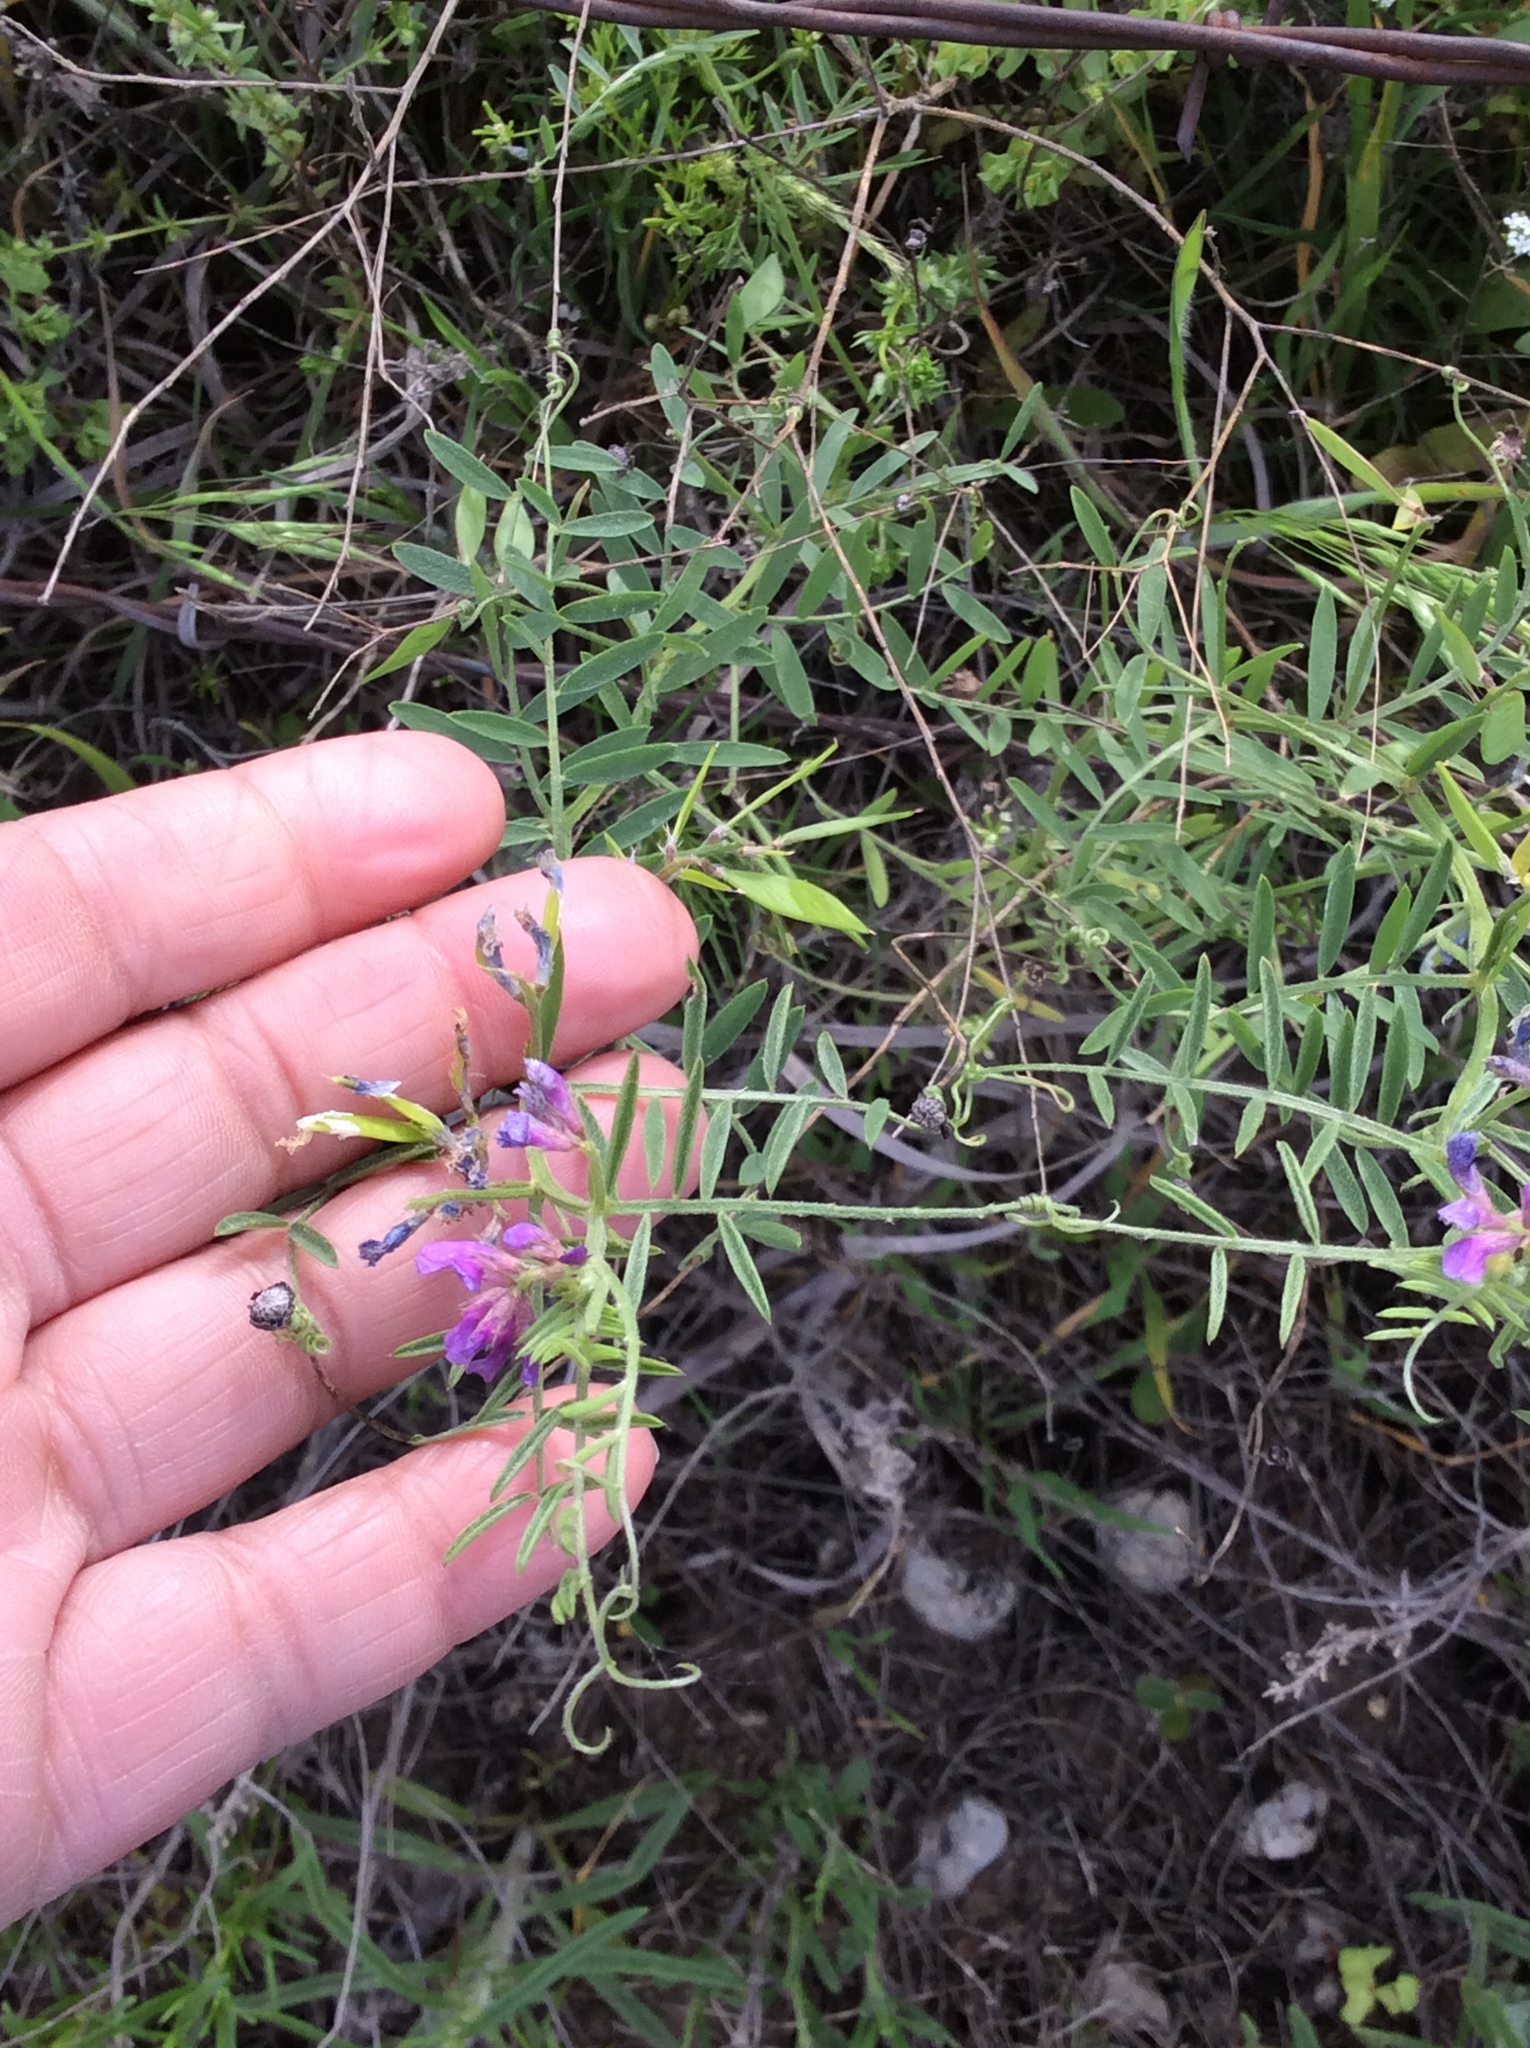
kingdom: Plantae
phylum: Tracheophyta
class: Magnoliopsida
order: Fabales
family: Fabaceae
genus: Vicia
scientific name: Vicia ludoviciana
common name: Louisiana vetch
